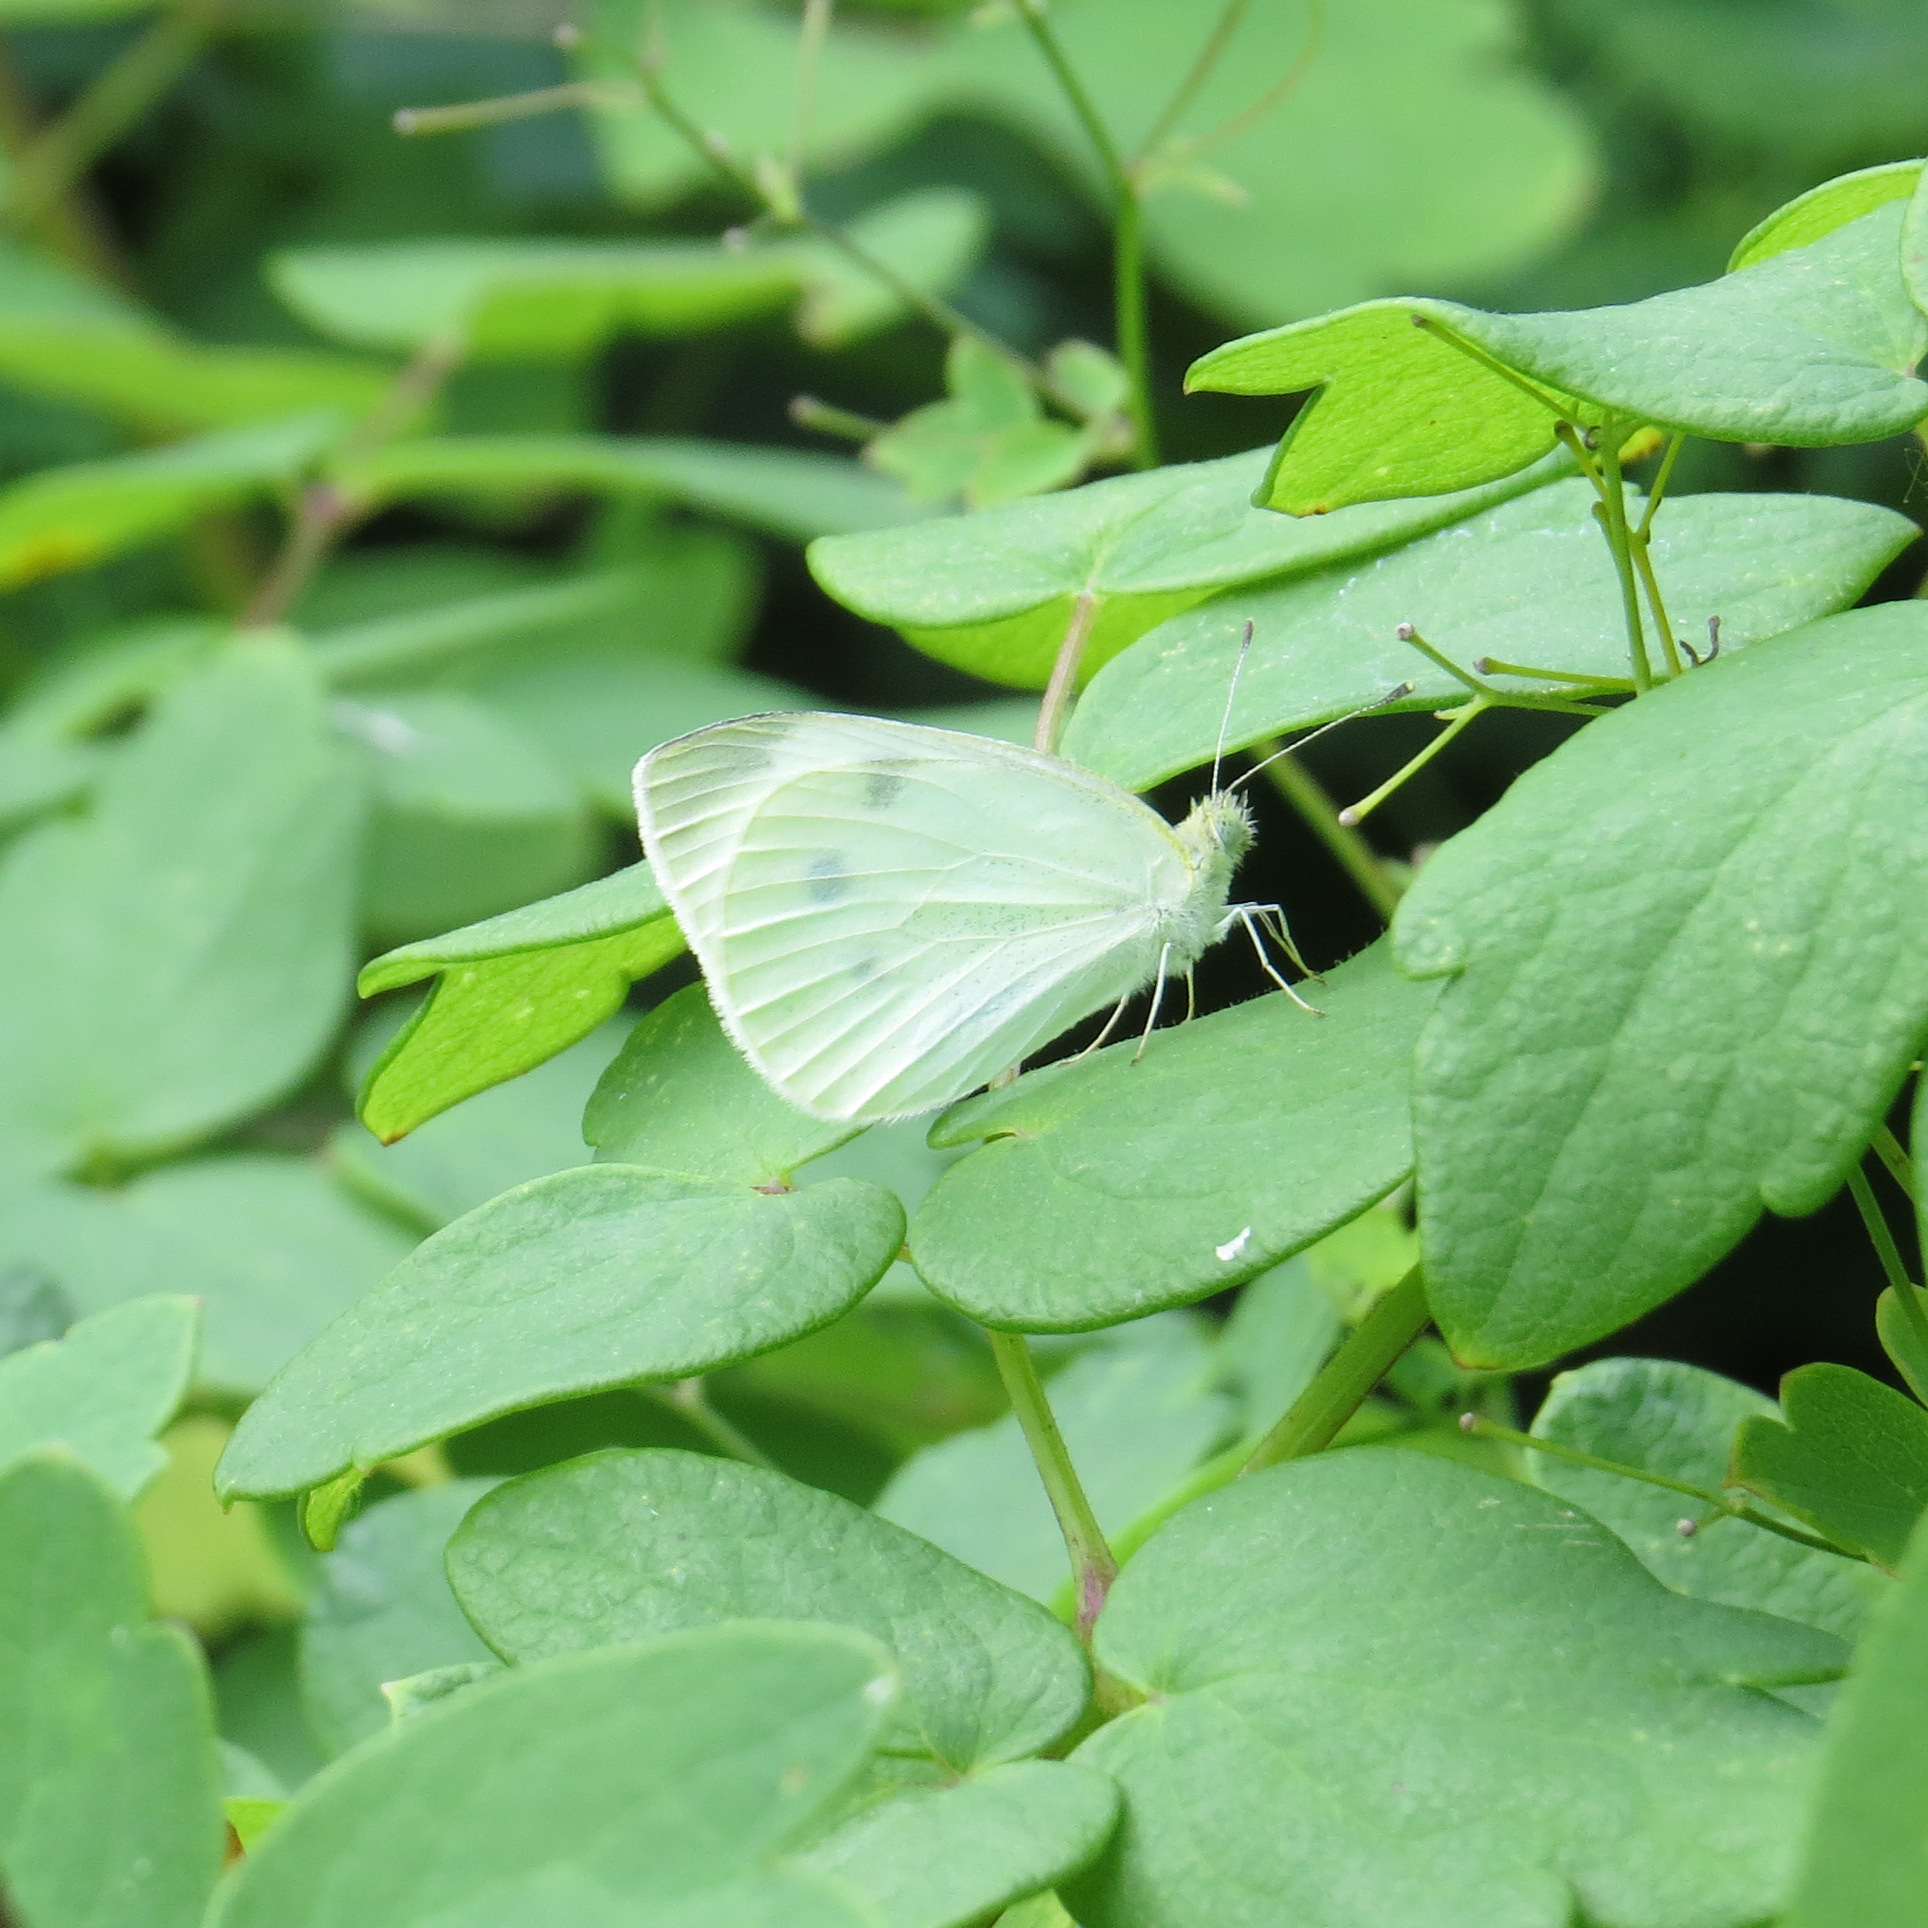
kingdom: Animalia
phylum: Arthropoda
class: Insecta
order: Lepidoptera
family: Pieridae
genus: Pieris
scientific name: Pieris rapae
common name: Small white
